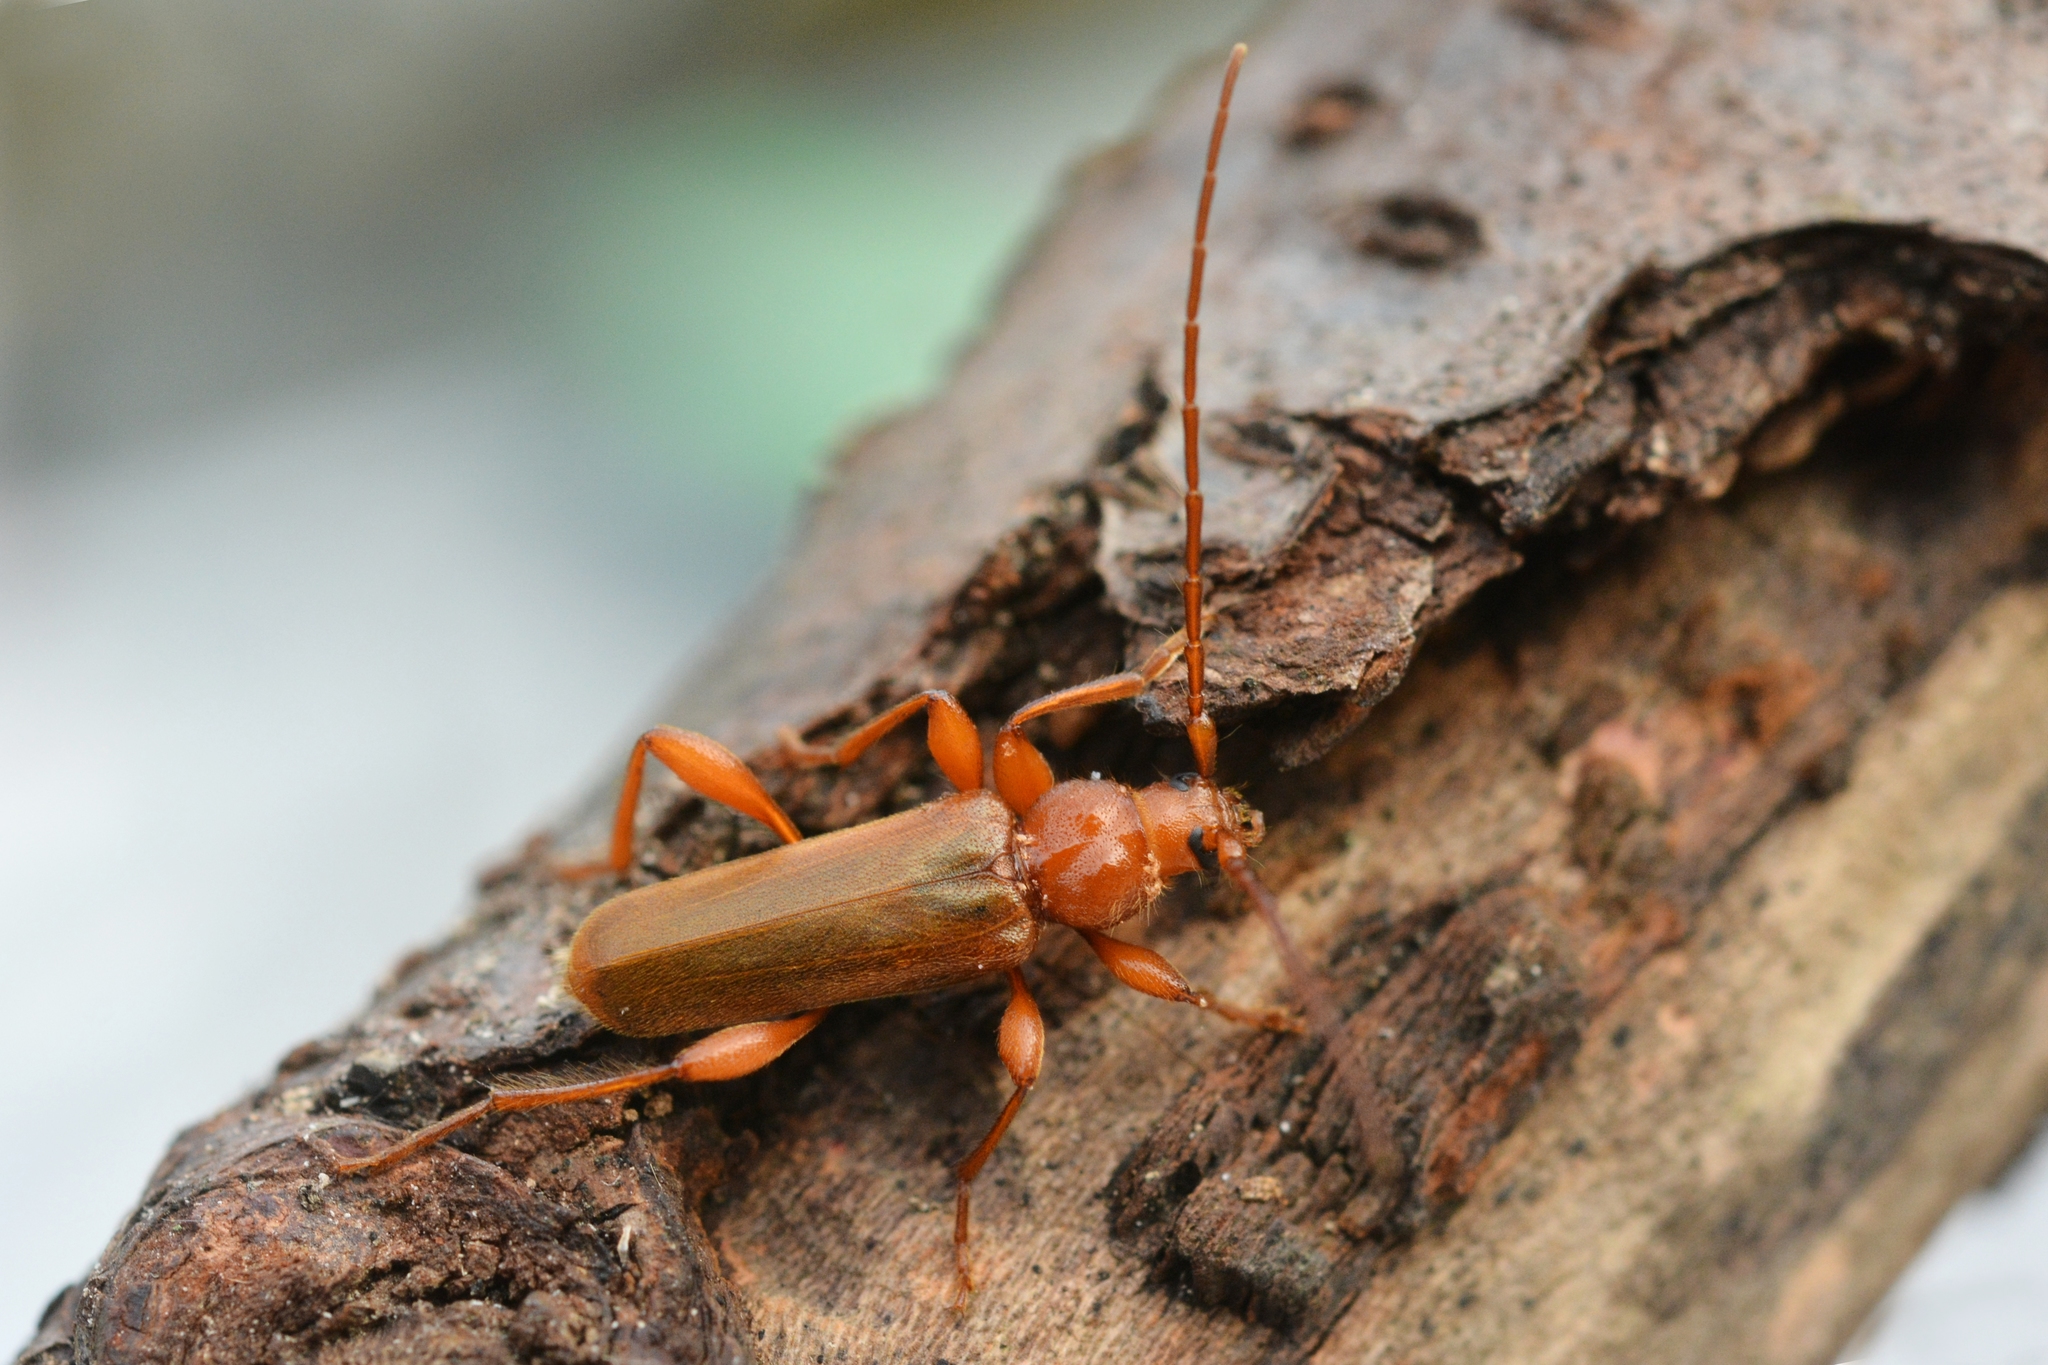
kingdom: Animalia
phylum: Arthropoda
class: Insecta
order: Coleoptera
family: Cerambycidae
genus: Phymatodes
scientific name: Phymatodes testaceus
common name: Long-horned beetle
